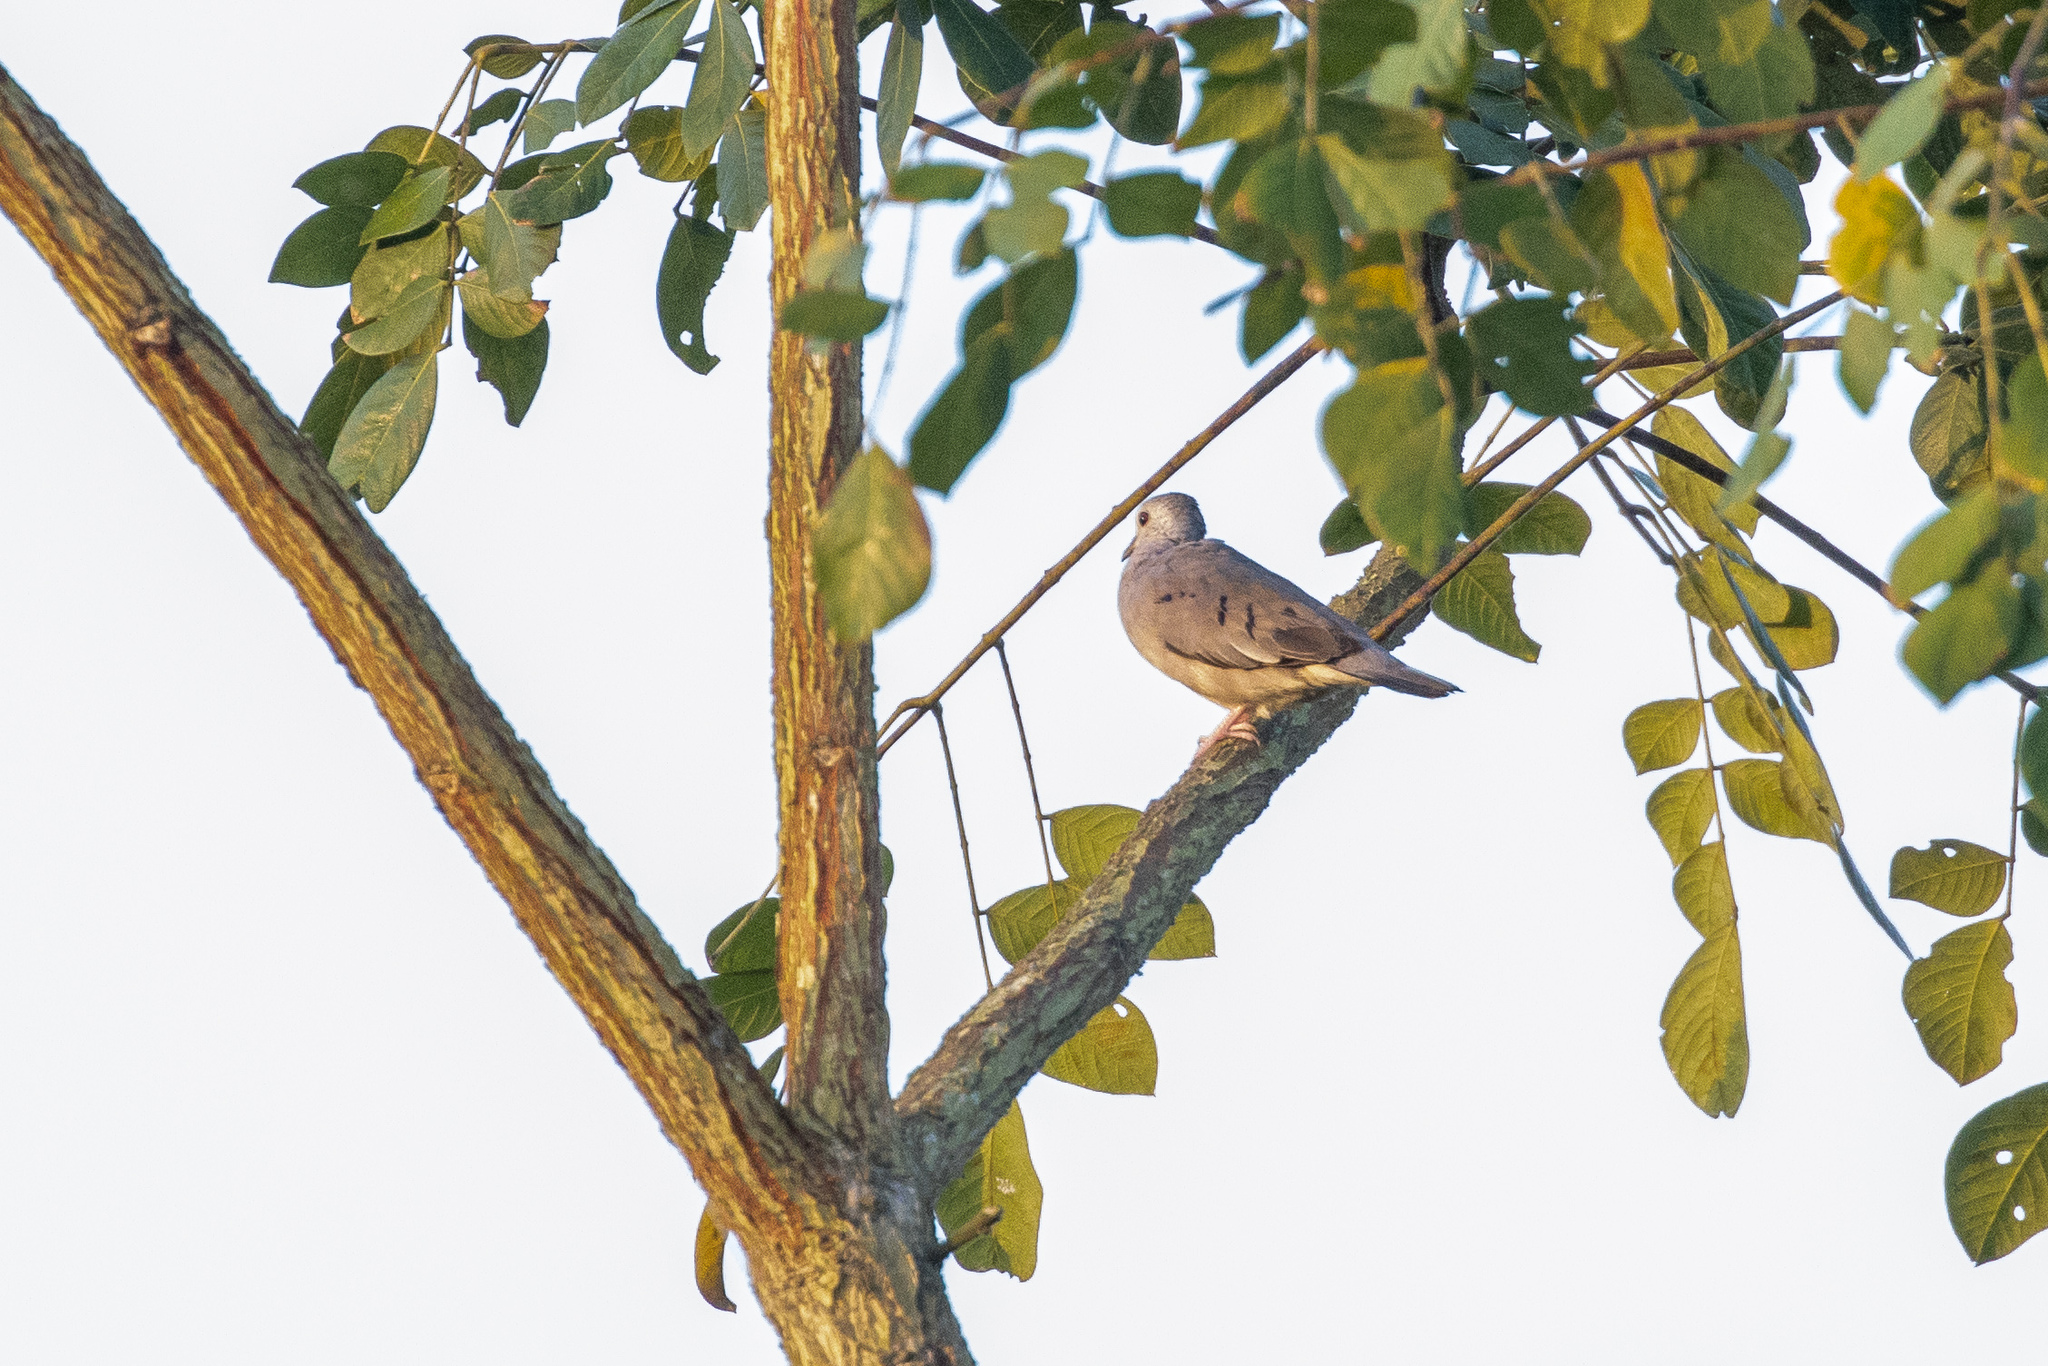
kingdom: Animalia
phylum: Chordata
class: Aves
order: Columbiformes
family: Columbidae
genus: Columbina
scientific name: Columbina minuta
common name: Plain-breasted ground dove
